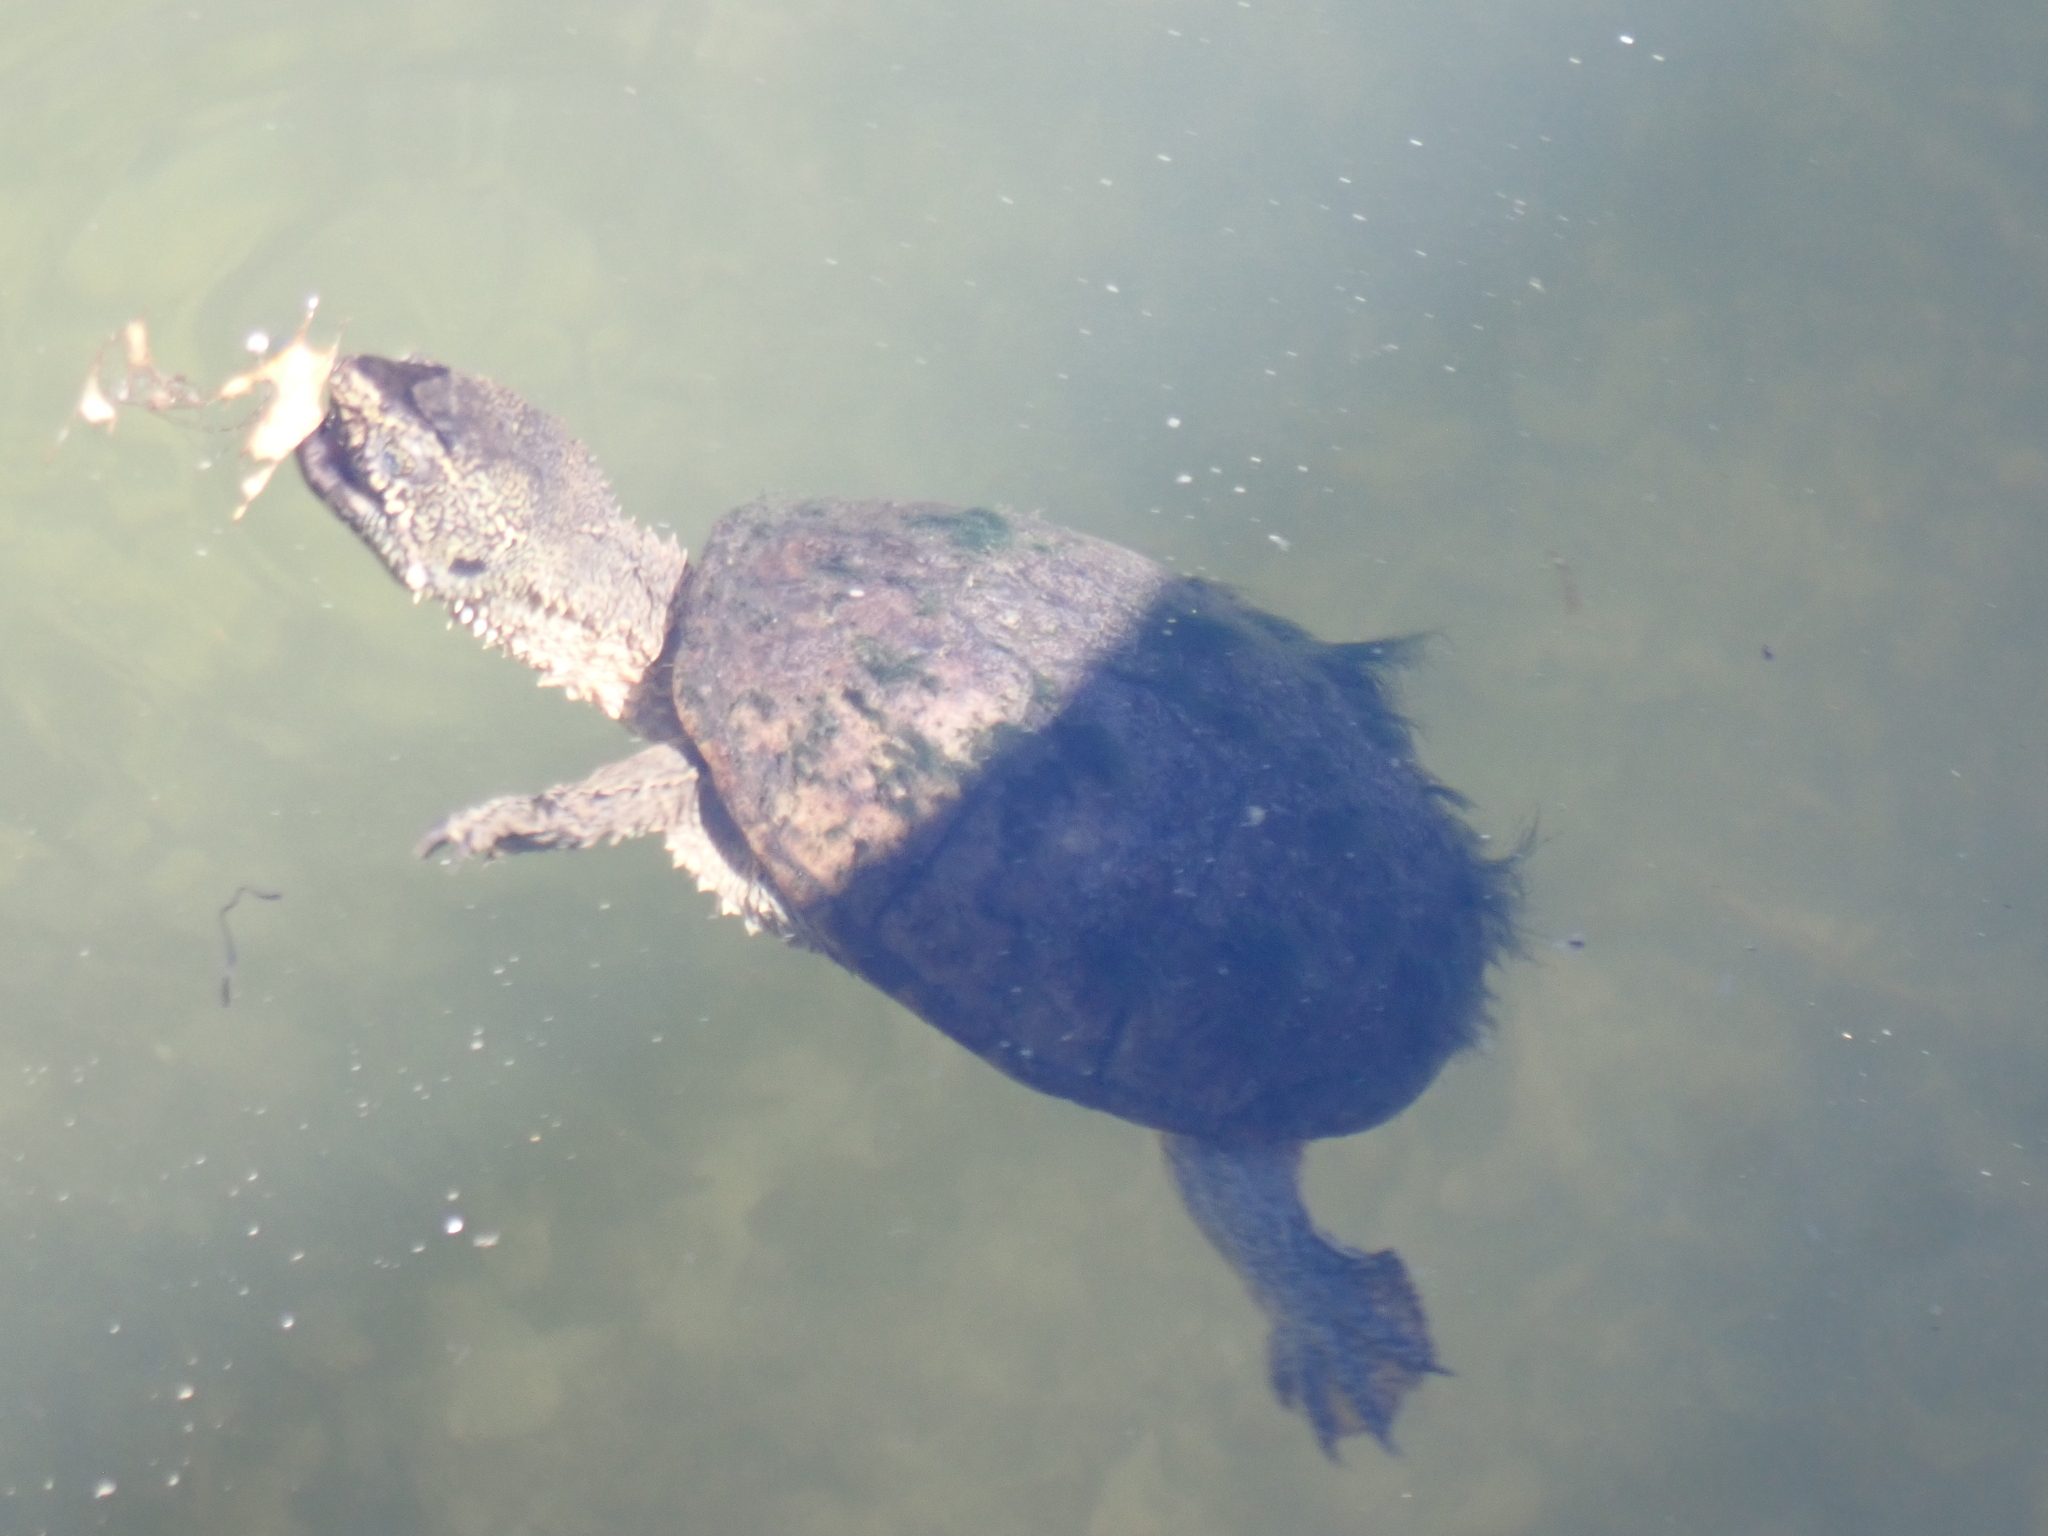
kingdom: Animalia
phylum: Chordata
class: Testudines
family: Chelydridae
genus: Chelydra
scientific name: Chelydra serpentina
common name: Common snapping turtle
